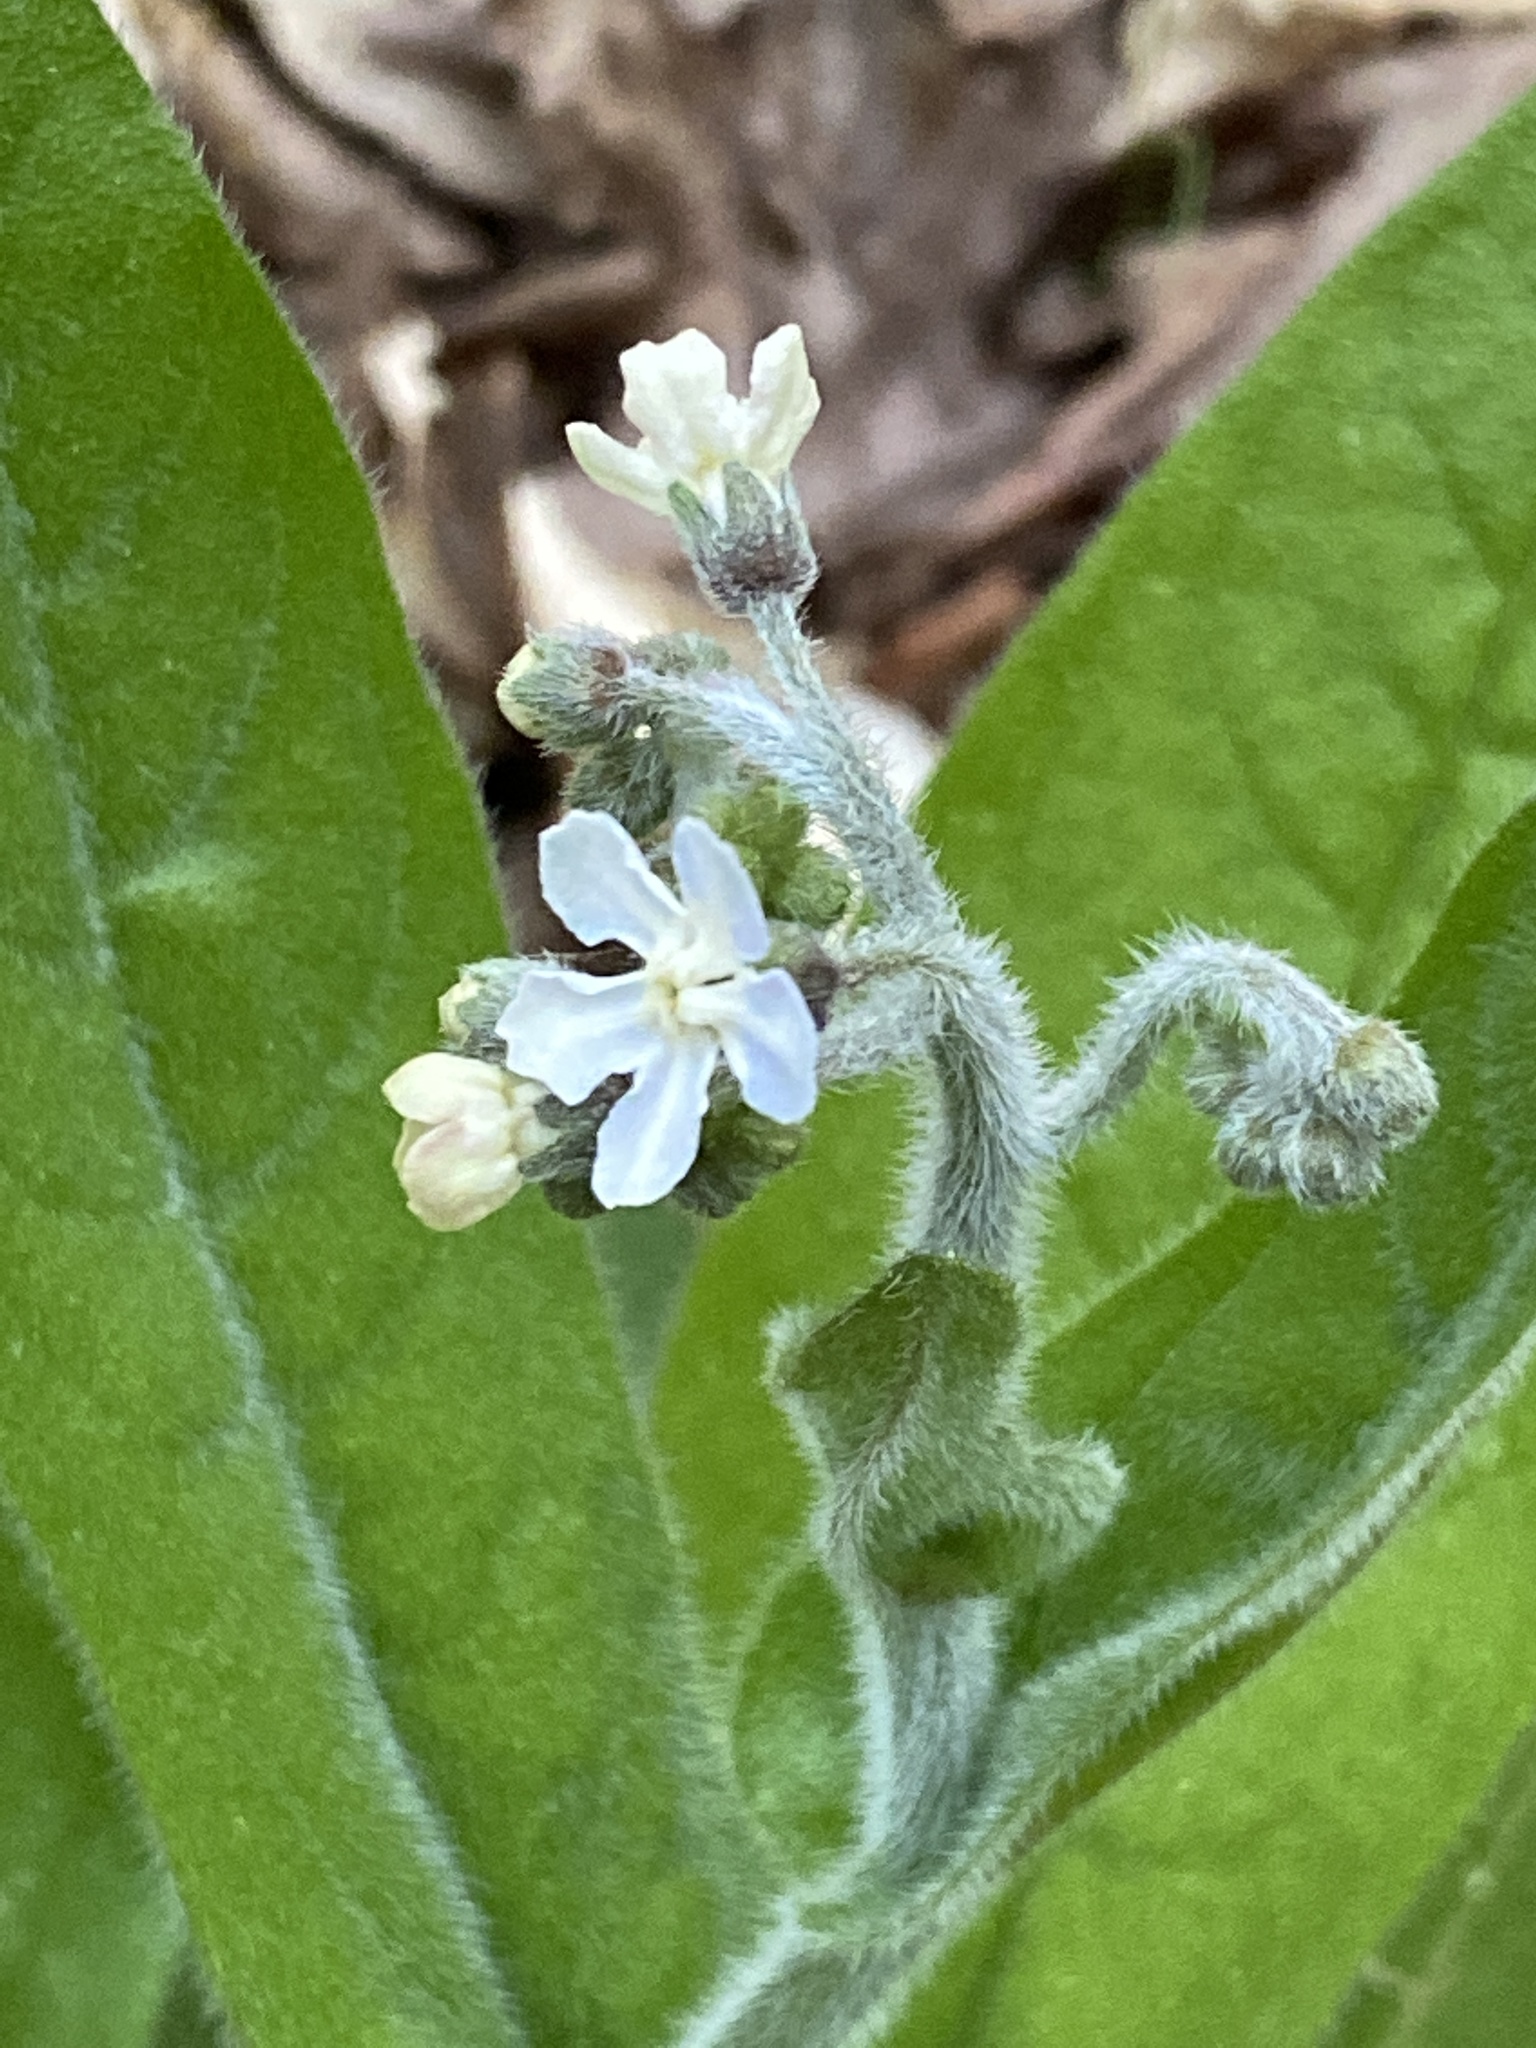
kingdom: Plantae
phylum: Tracheophyta
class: Magnoliopsida
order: Boraginales
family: Boraginaceae
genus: Andersonglossum
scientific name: Andersonglossum virginianum
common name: Wild comfrey
